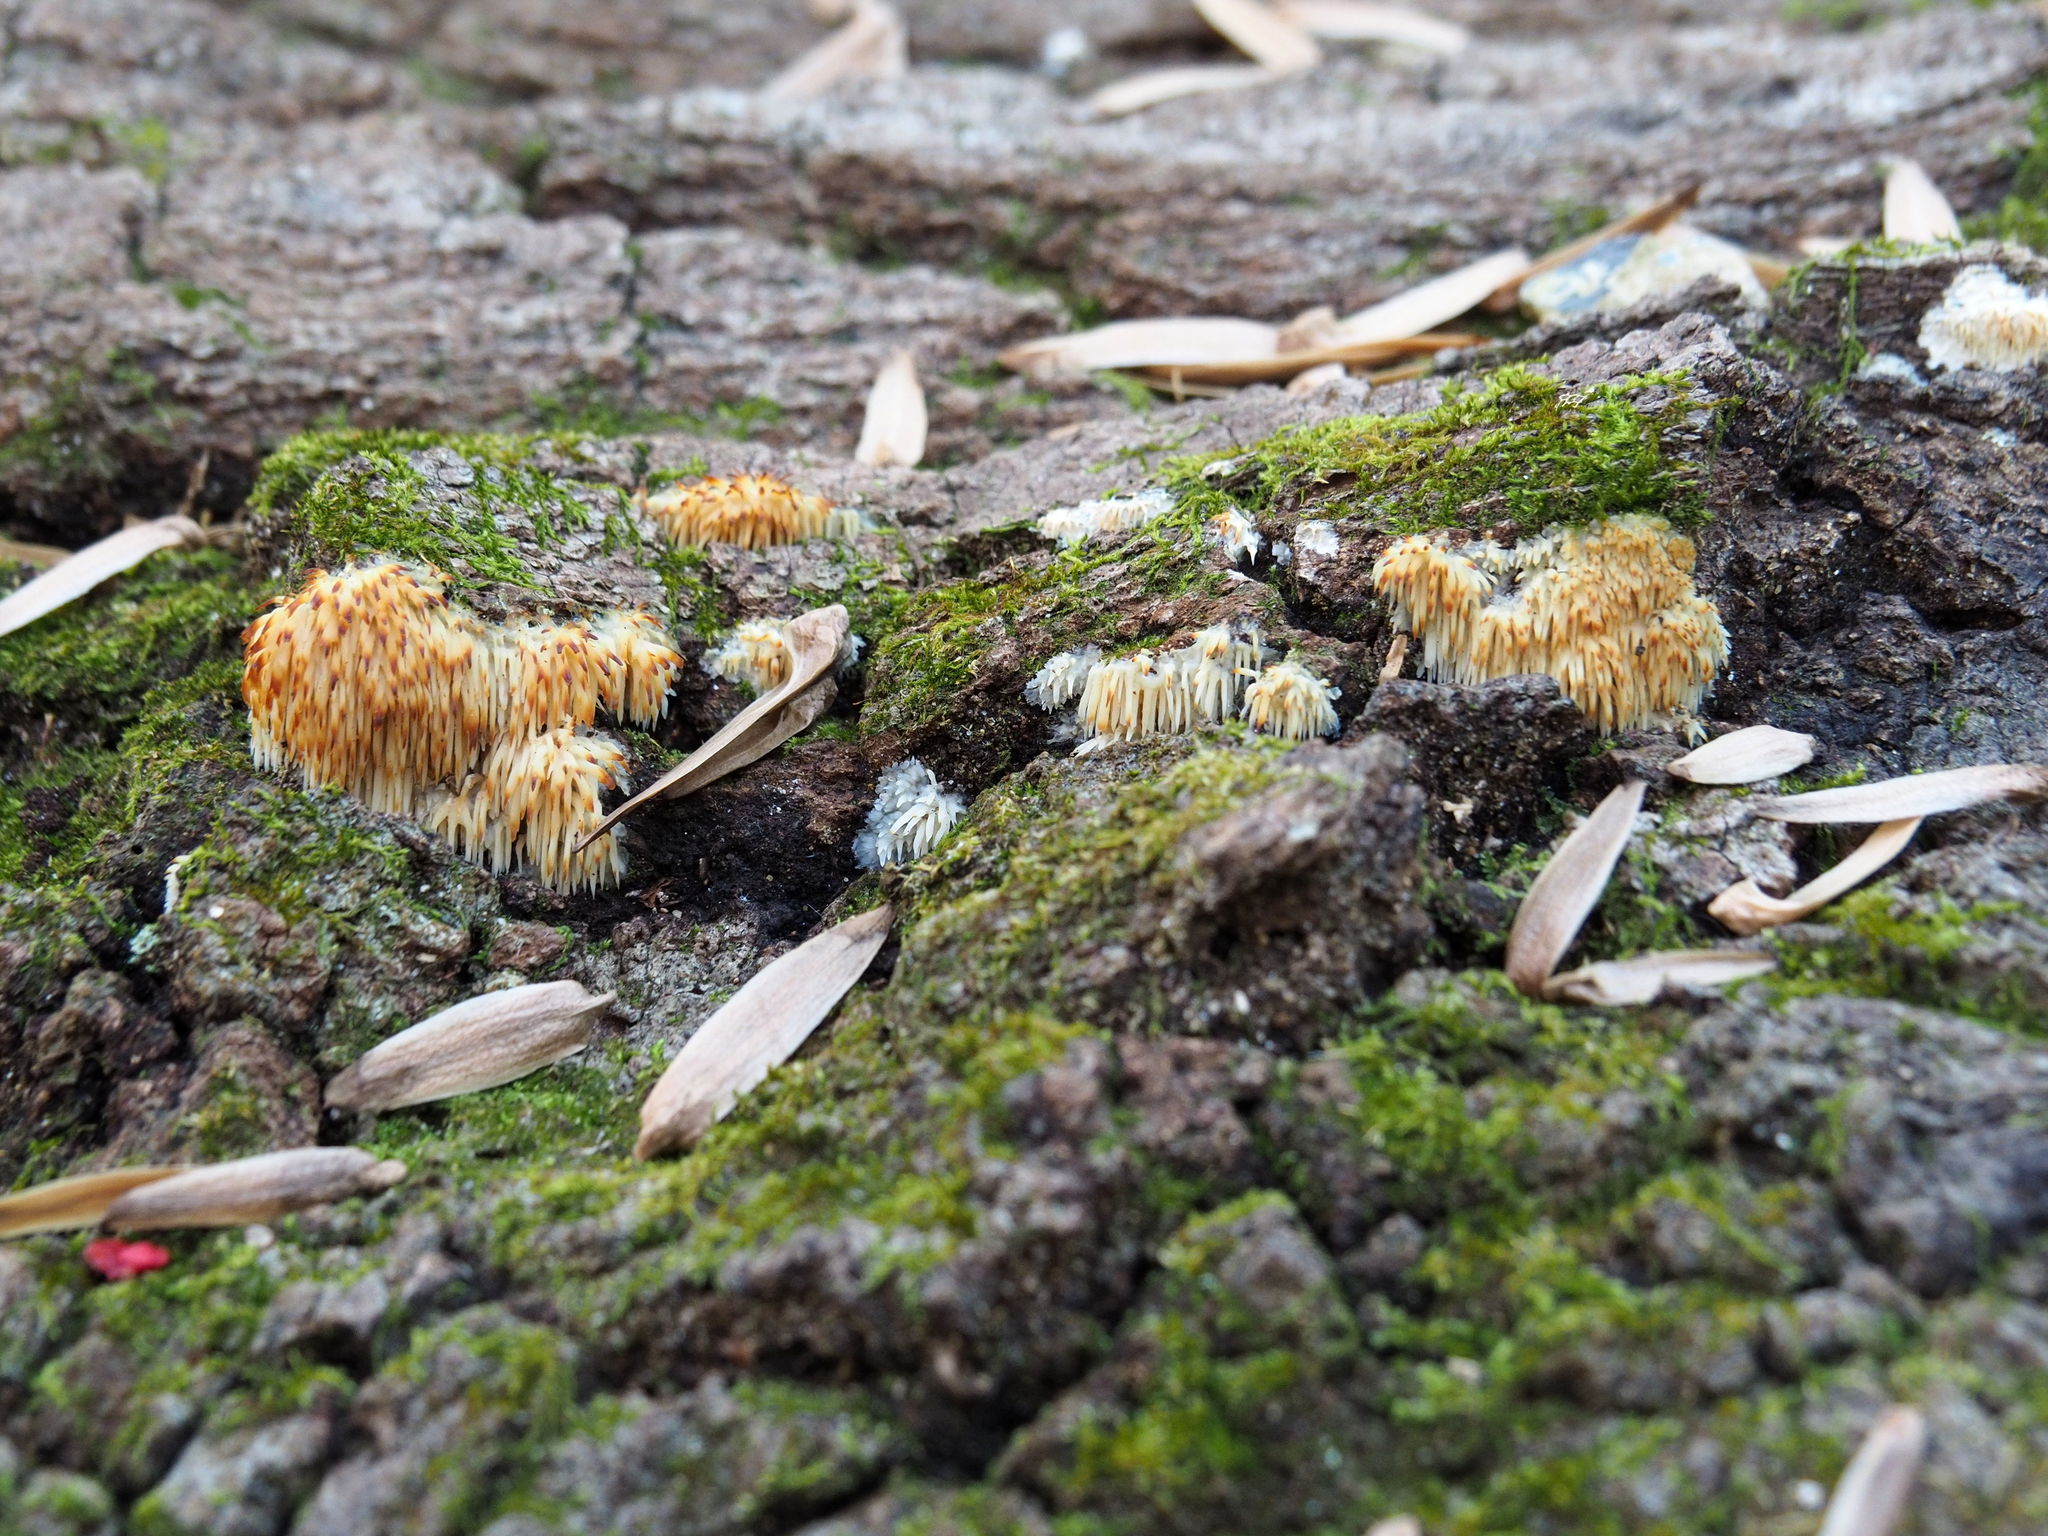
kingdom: Fungi
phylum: Basidiomycota
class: Agaricomycetes
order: Agaricales
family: Radulomycetaceae
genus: Radulomyces
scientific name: Radulomyces copelandii
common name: Asian beauty
